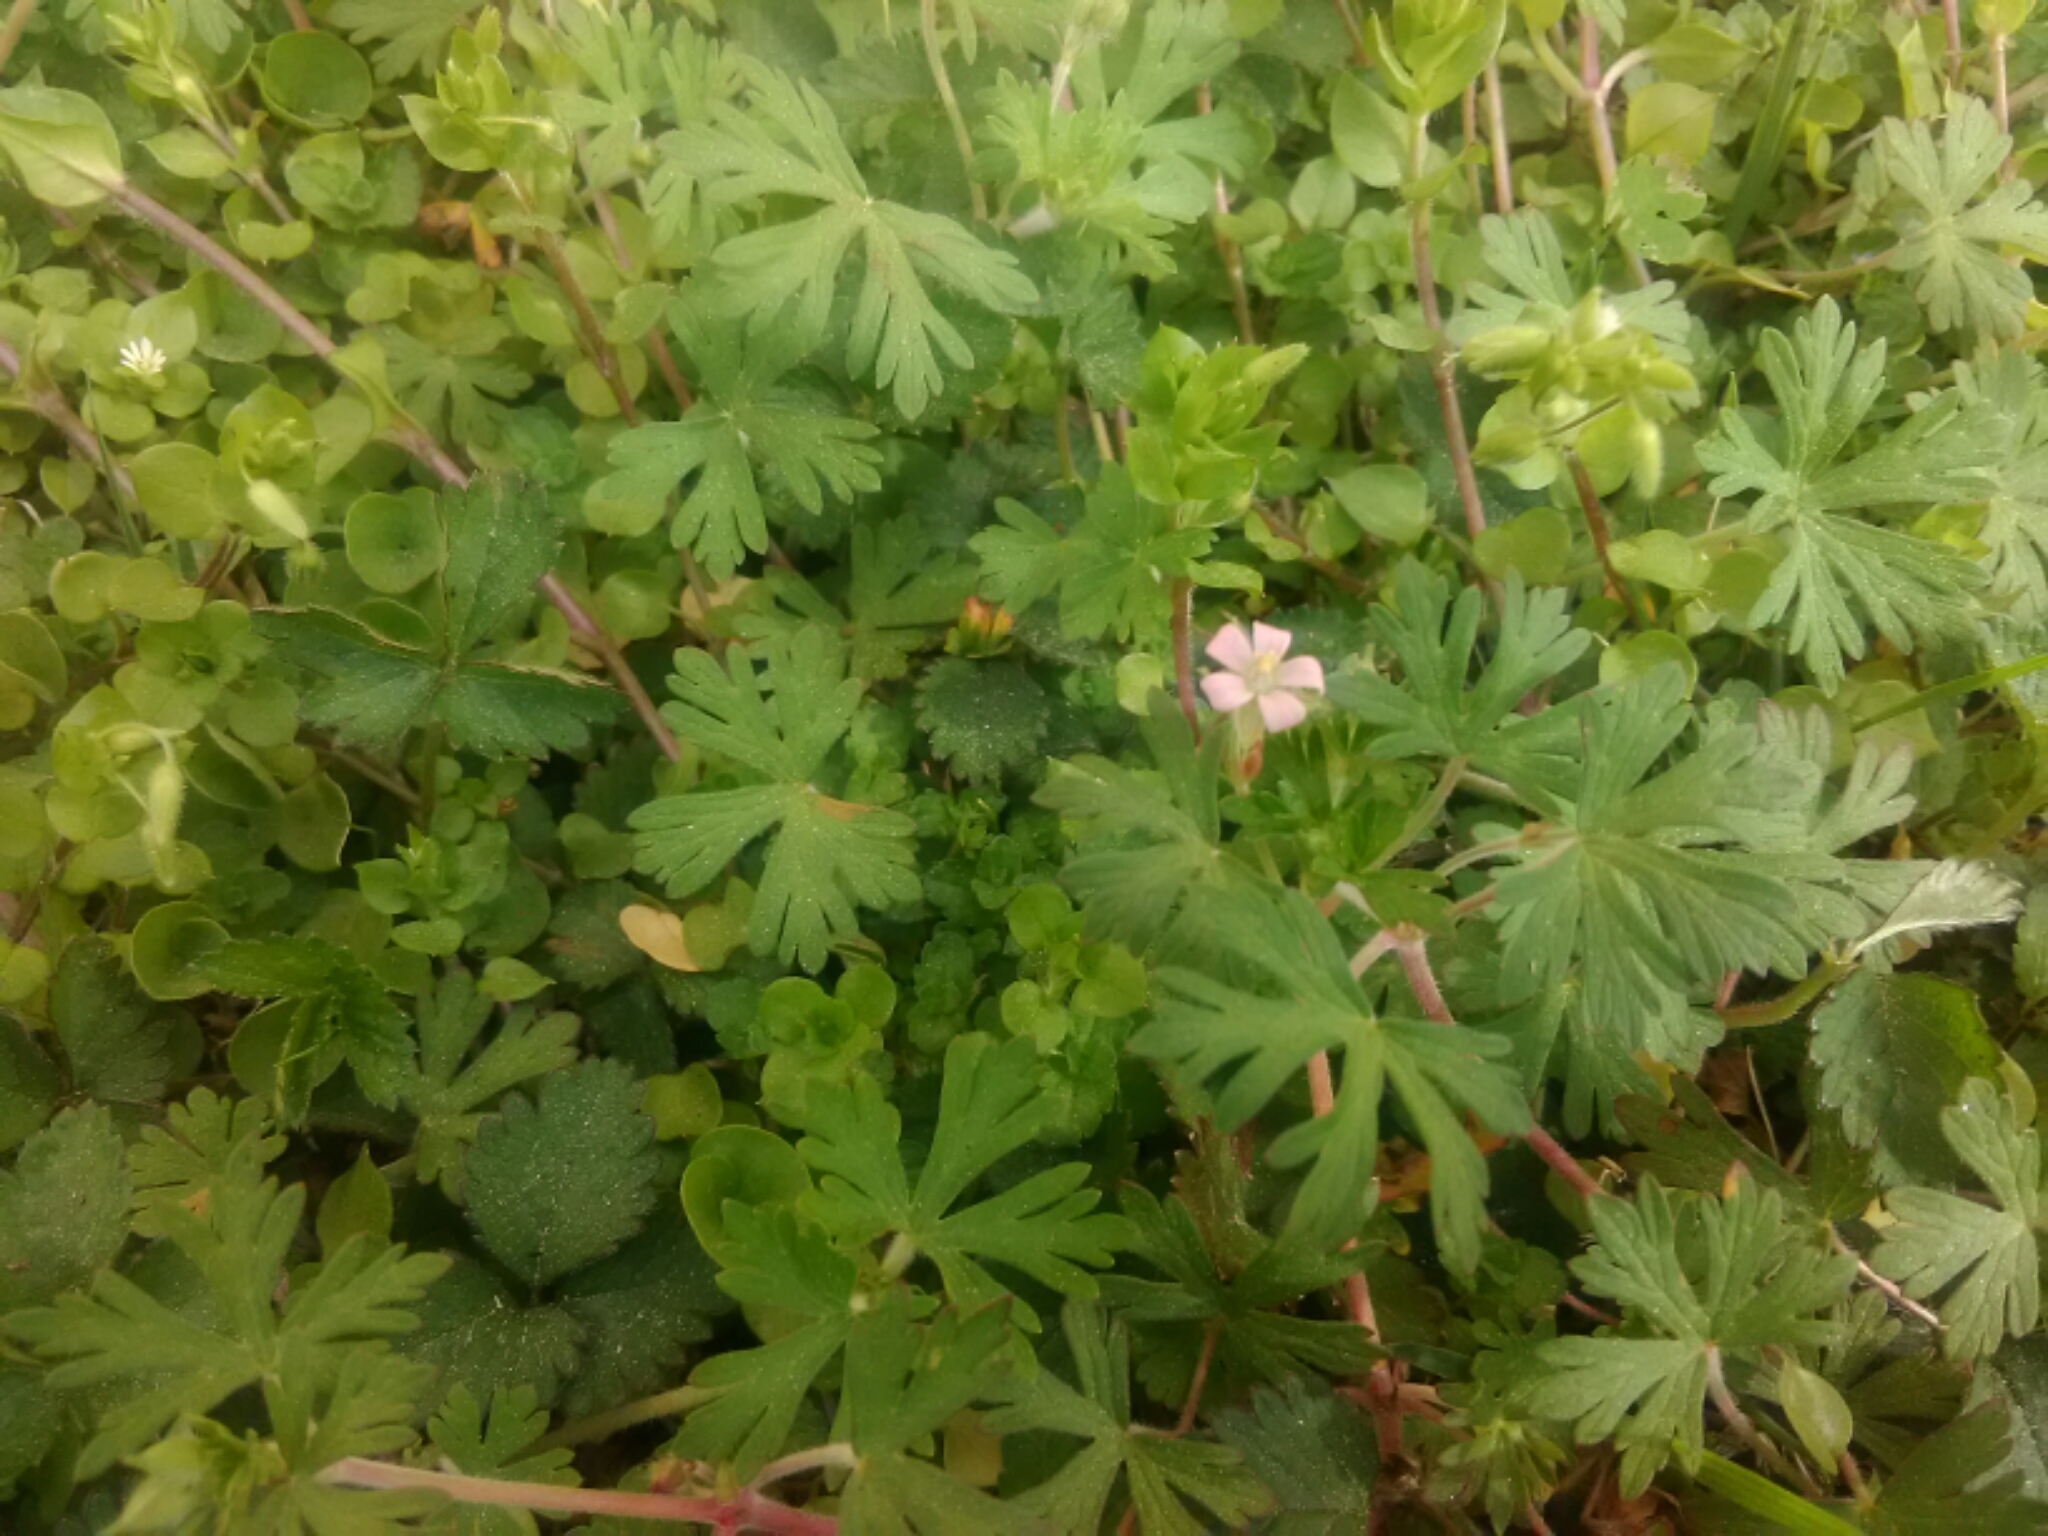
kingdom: Plantae
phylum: Tracheophyta
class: Magnoliopsida
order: Geraniales
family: Geraniaceae
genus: Geranium
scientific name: Geranium carolinianum
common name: Carolina crane's-bill
